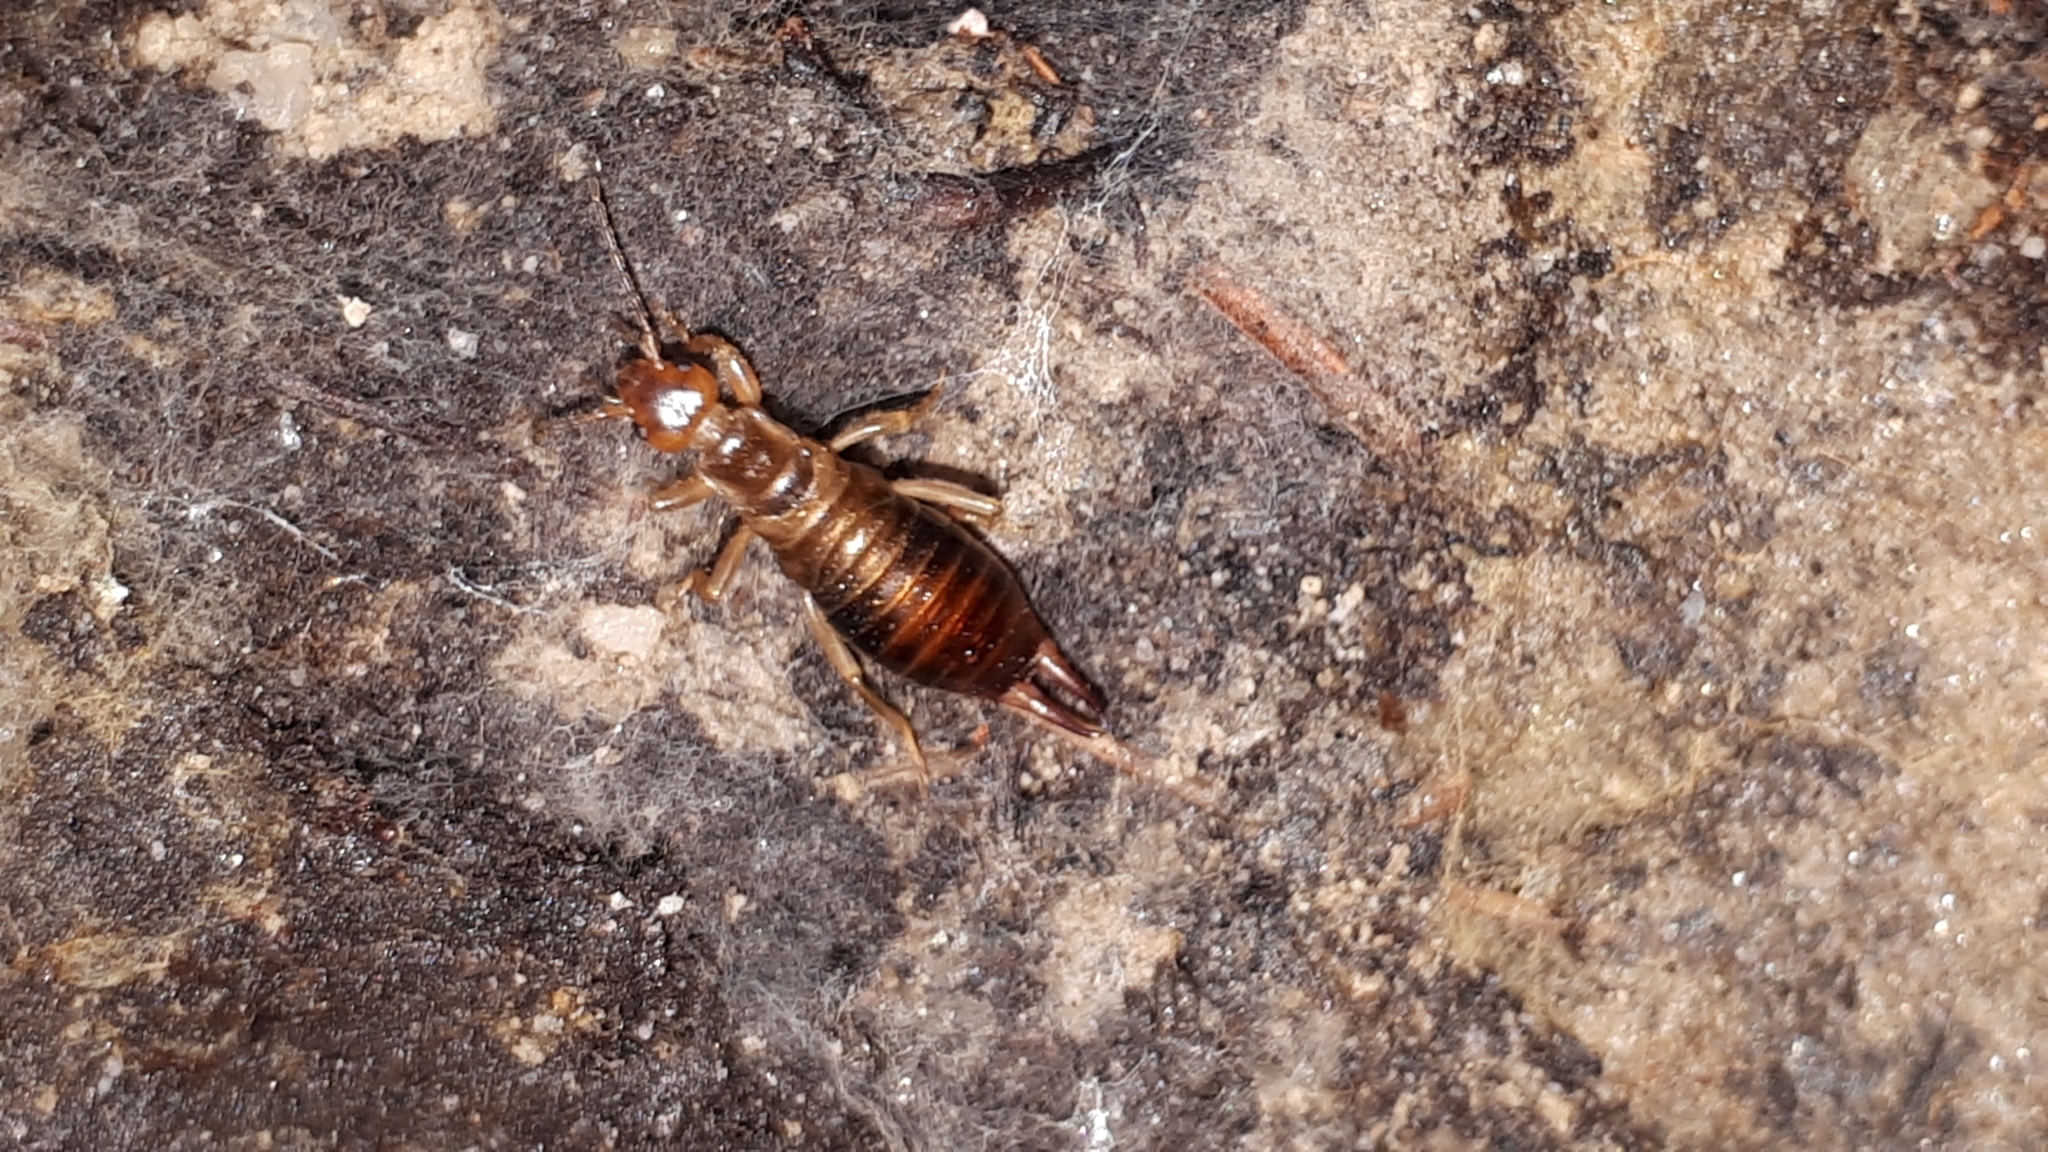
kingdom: Animalia
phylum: Arthropoda
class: Insecta
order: Dermaptera
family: Forficulidae
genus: Chelidurella
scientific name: Chelidurella acanthopygia
